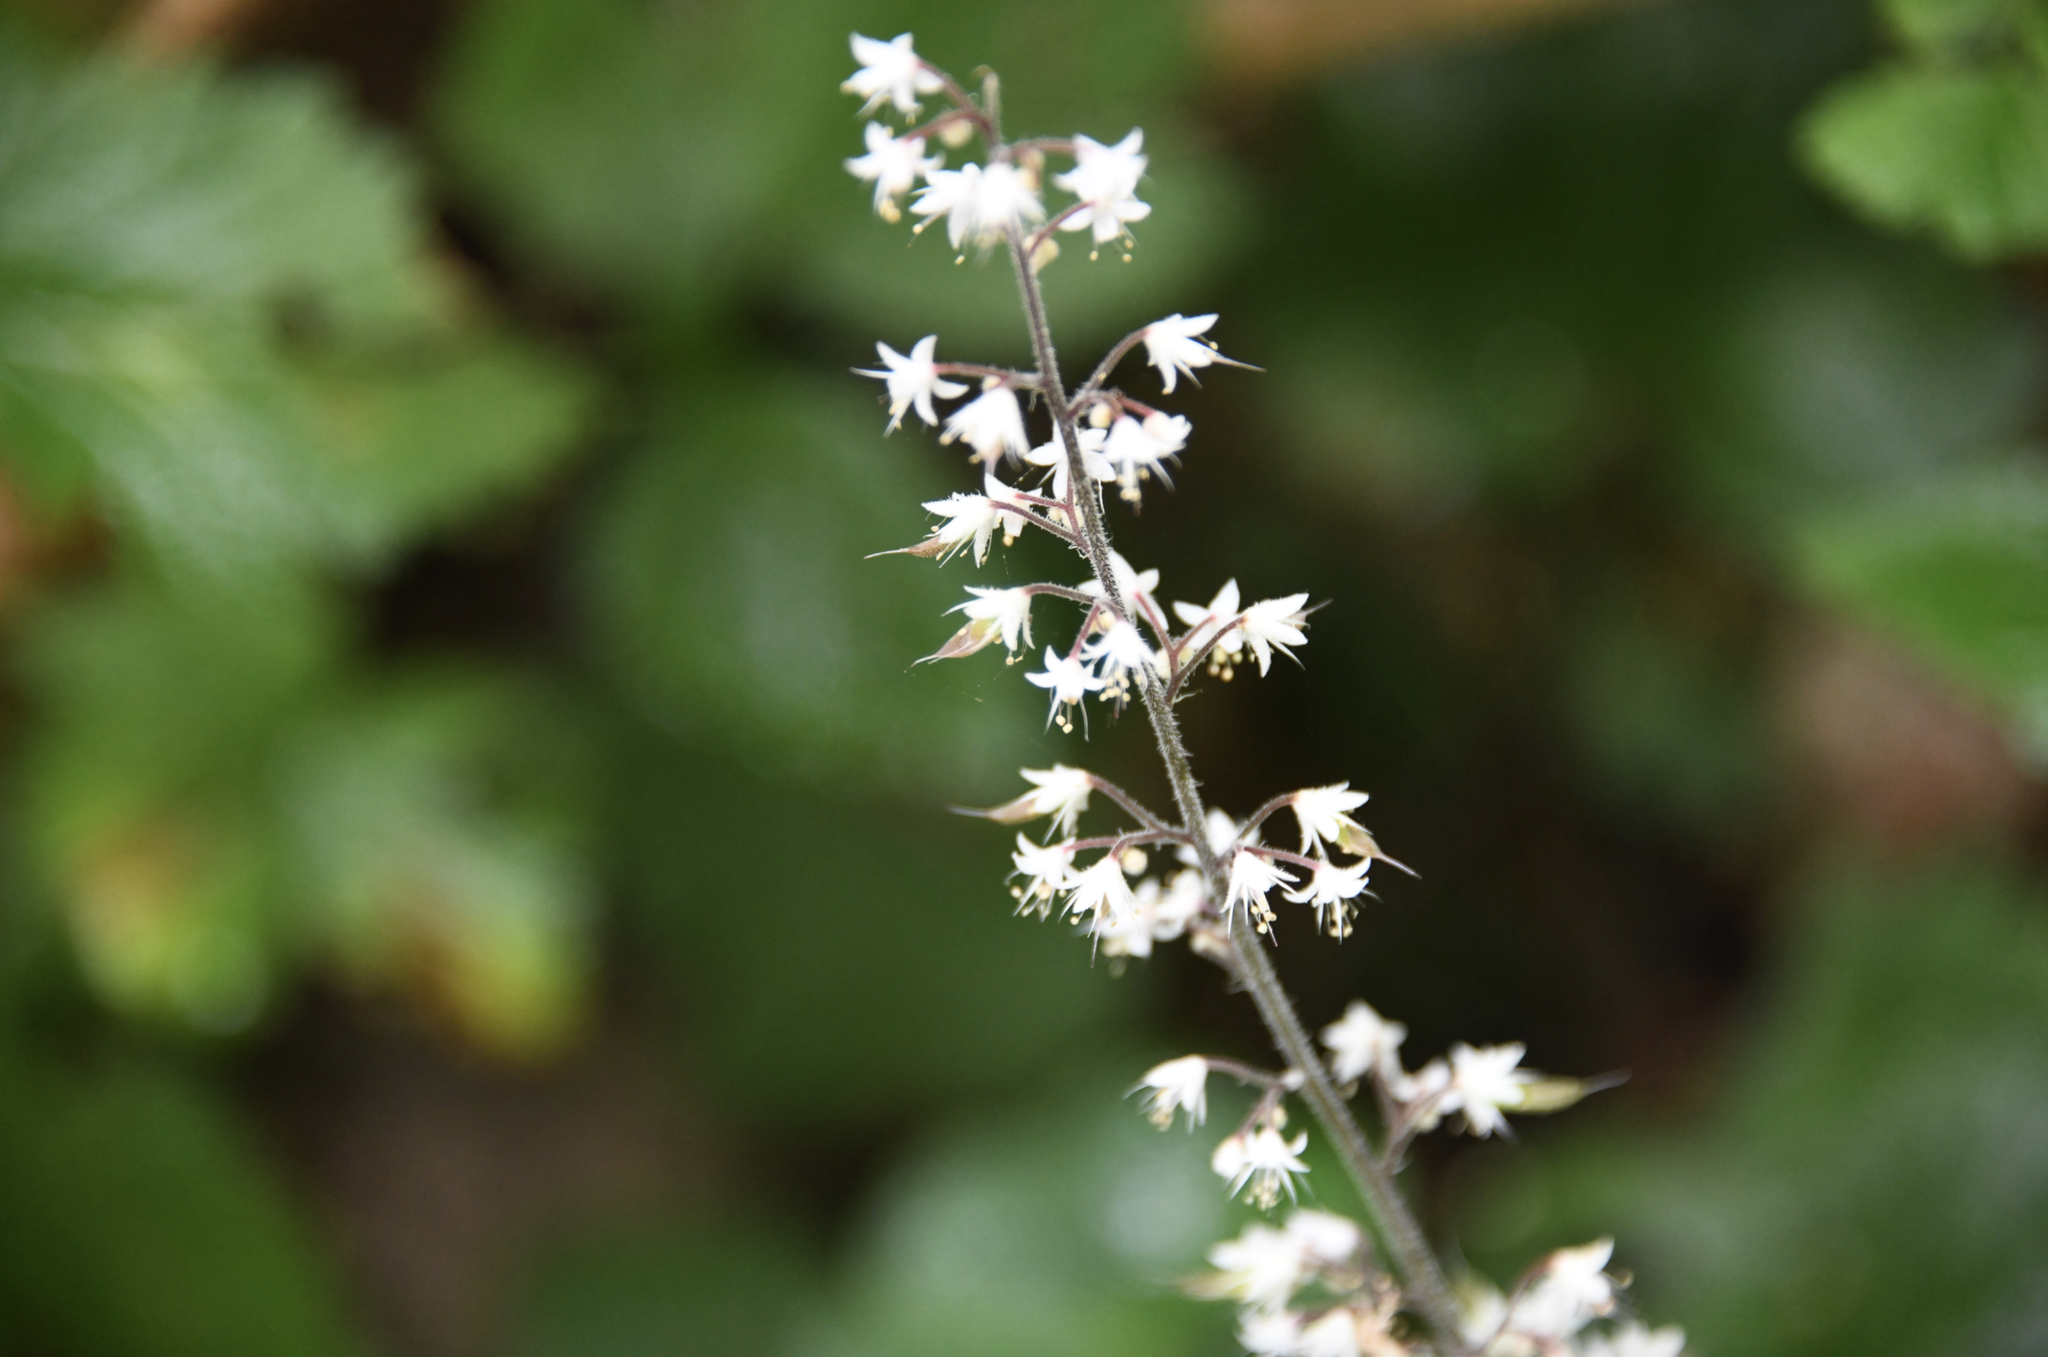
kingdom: Plantae
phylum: Tracheophyta
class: Magnoliopsida
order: Saxifragales
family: Saxifragaceae
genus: Tiarella
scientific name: Tiarella trifoliata
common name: Sugar-scoop
